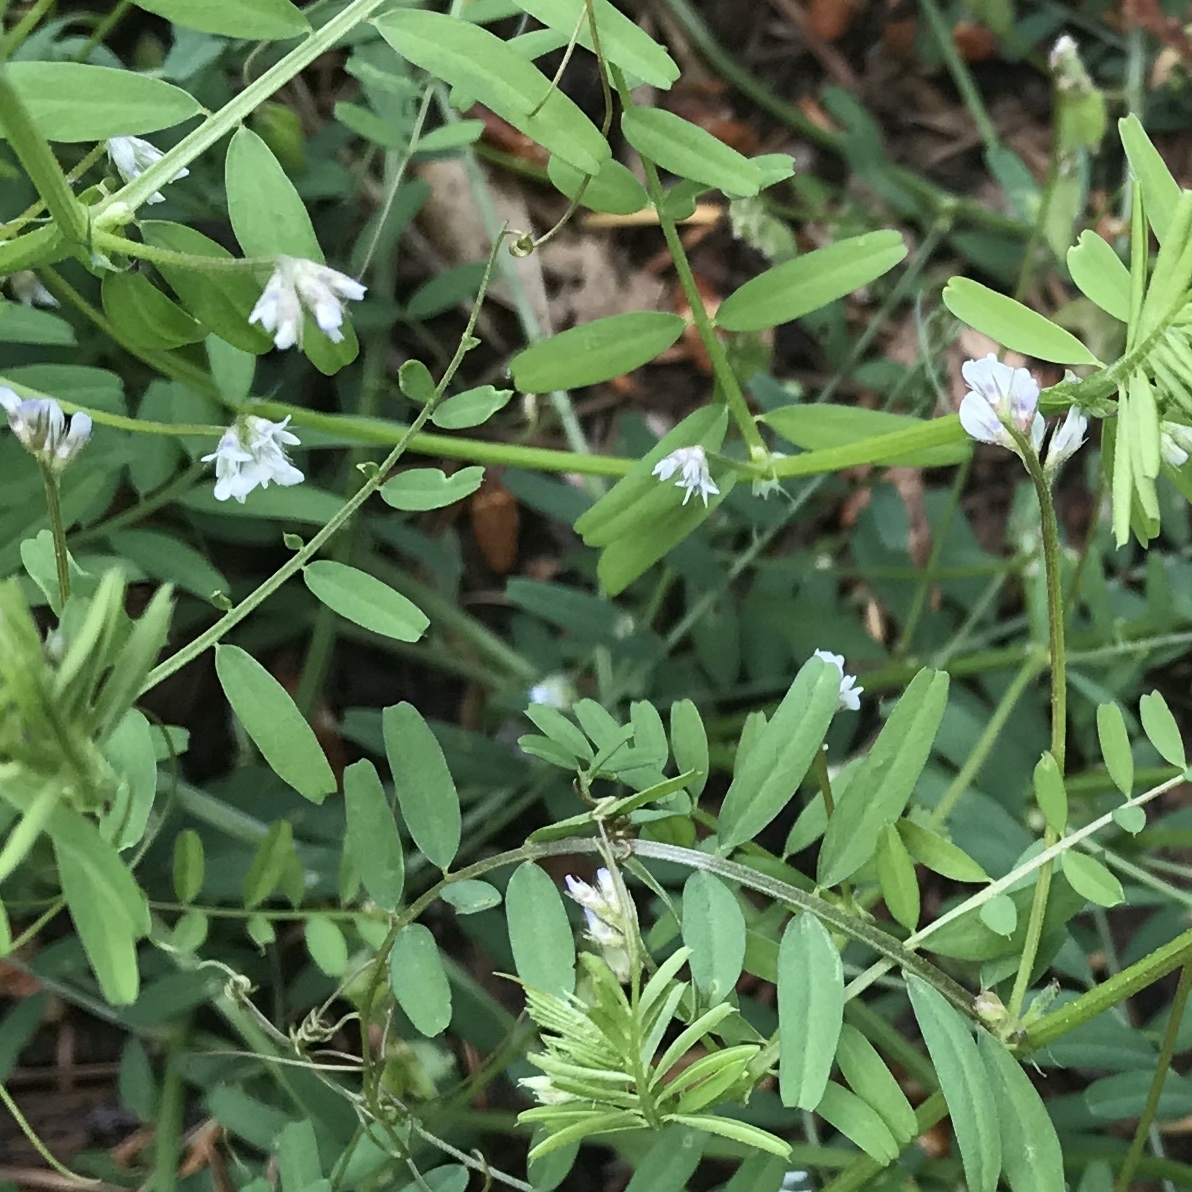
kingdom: Plantae
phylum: Tracheophyta
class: Magnoliopsida
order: Fabales
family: Fabaceae
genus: Vicia
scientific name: Vicia hirsuta
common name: Tiny vetch
